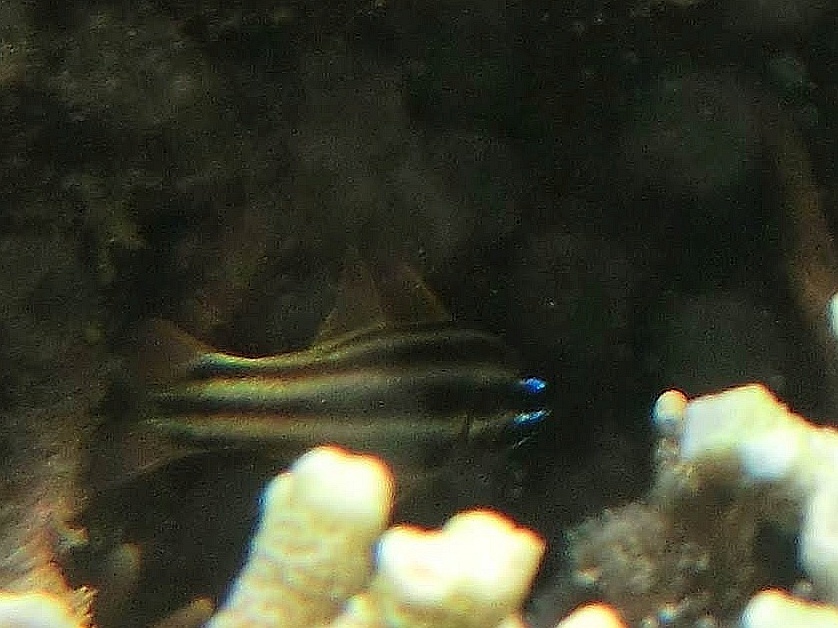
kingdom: Animalia
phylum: Chordata
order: Perciformes
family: Apogonidae
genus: Ostorhinchus
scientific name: Ostorhinchus novemfasciatus
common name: Seven-striped cardinalfish
